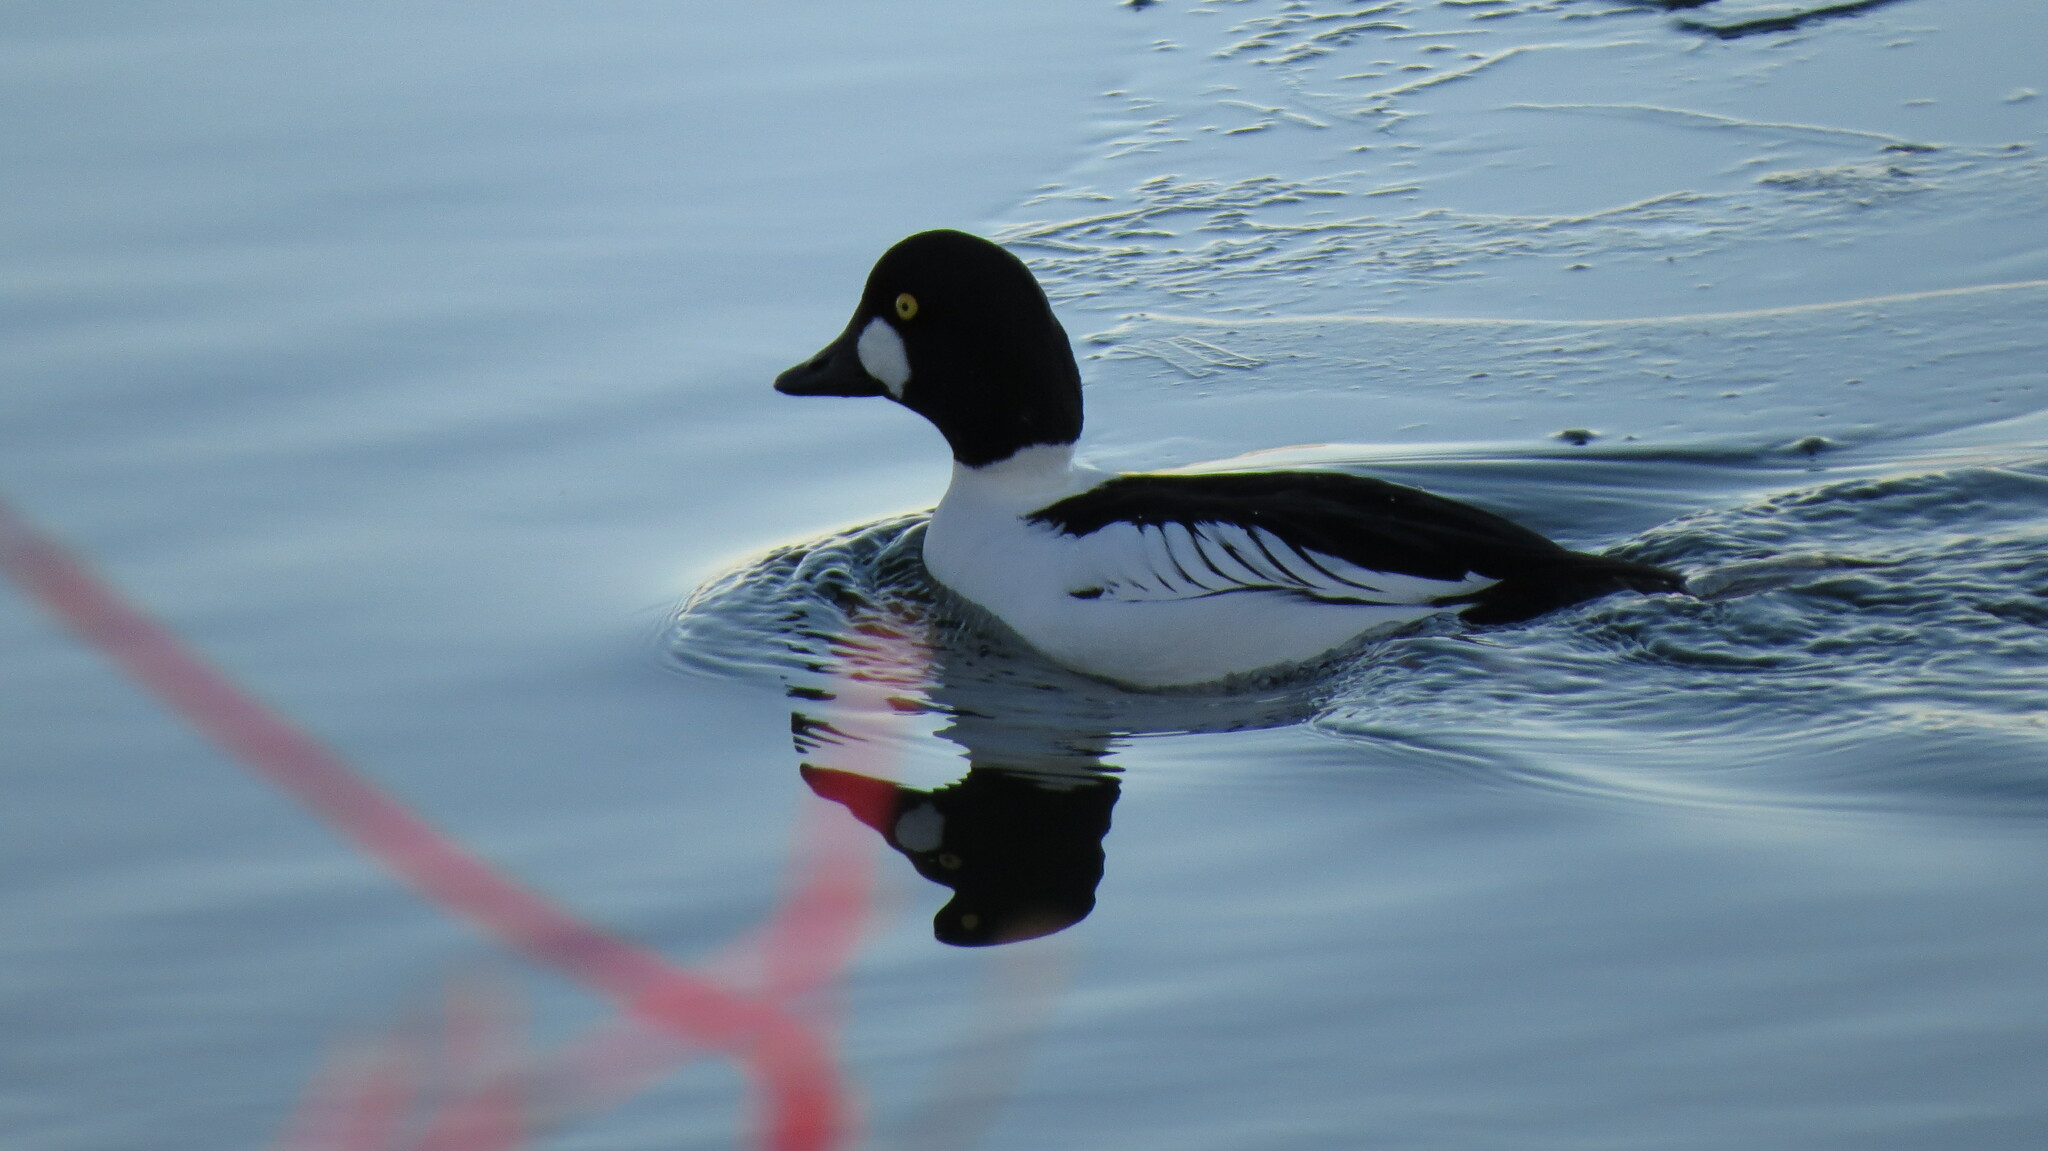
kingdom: Animalia
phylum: Chordata
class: Aves
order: Anseriformes
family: Anatidae
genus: Bucephala
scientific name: Bucephala clangula
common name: Common goldeneye
